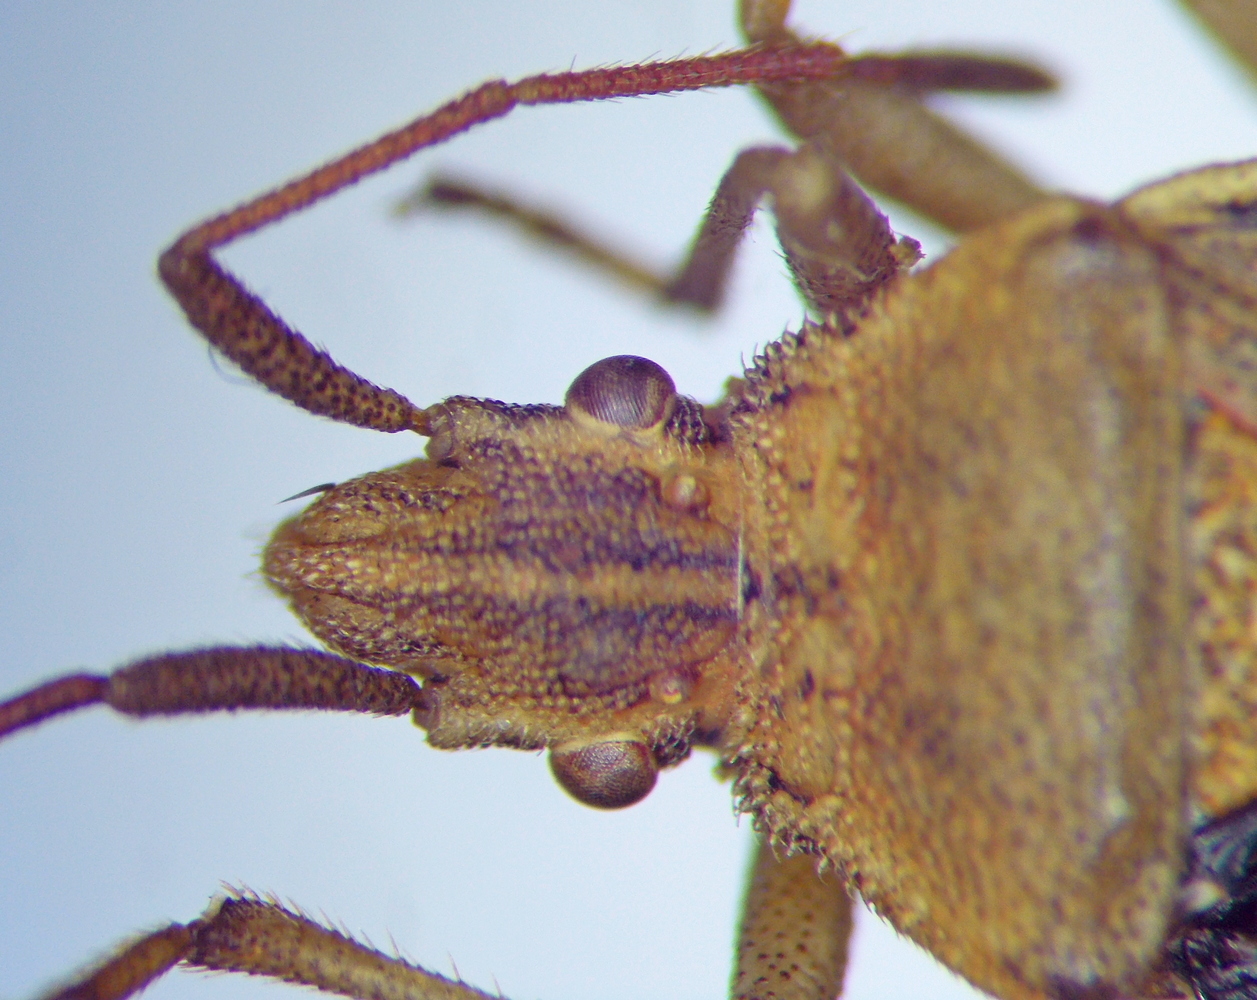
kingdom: Animalia
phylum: Arthropoda
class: Insecta
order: Hemiptera
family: Coreidae
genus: Ceraleptus
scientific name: Ceraleptus obtusus
